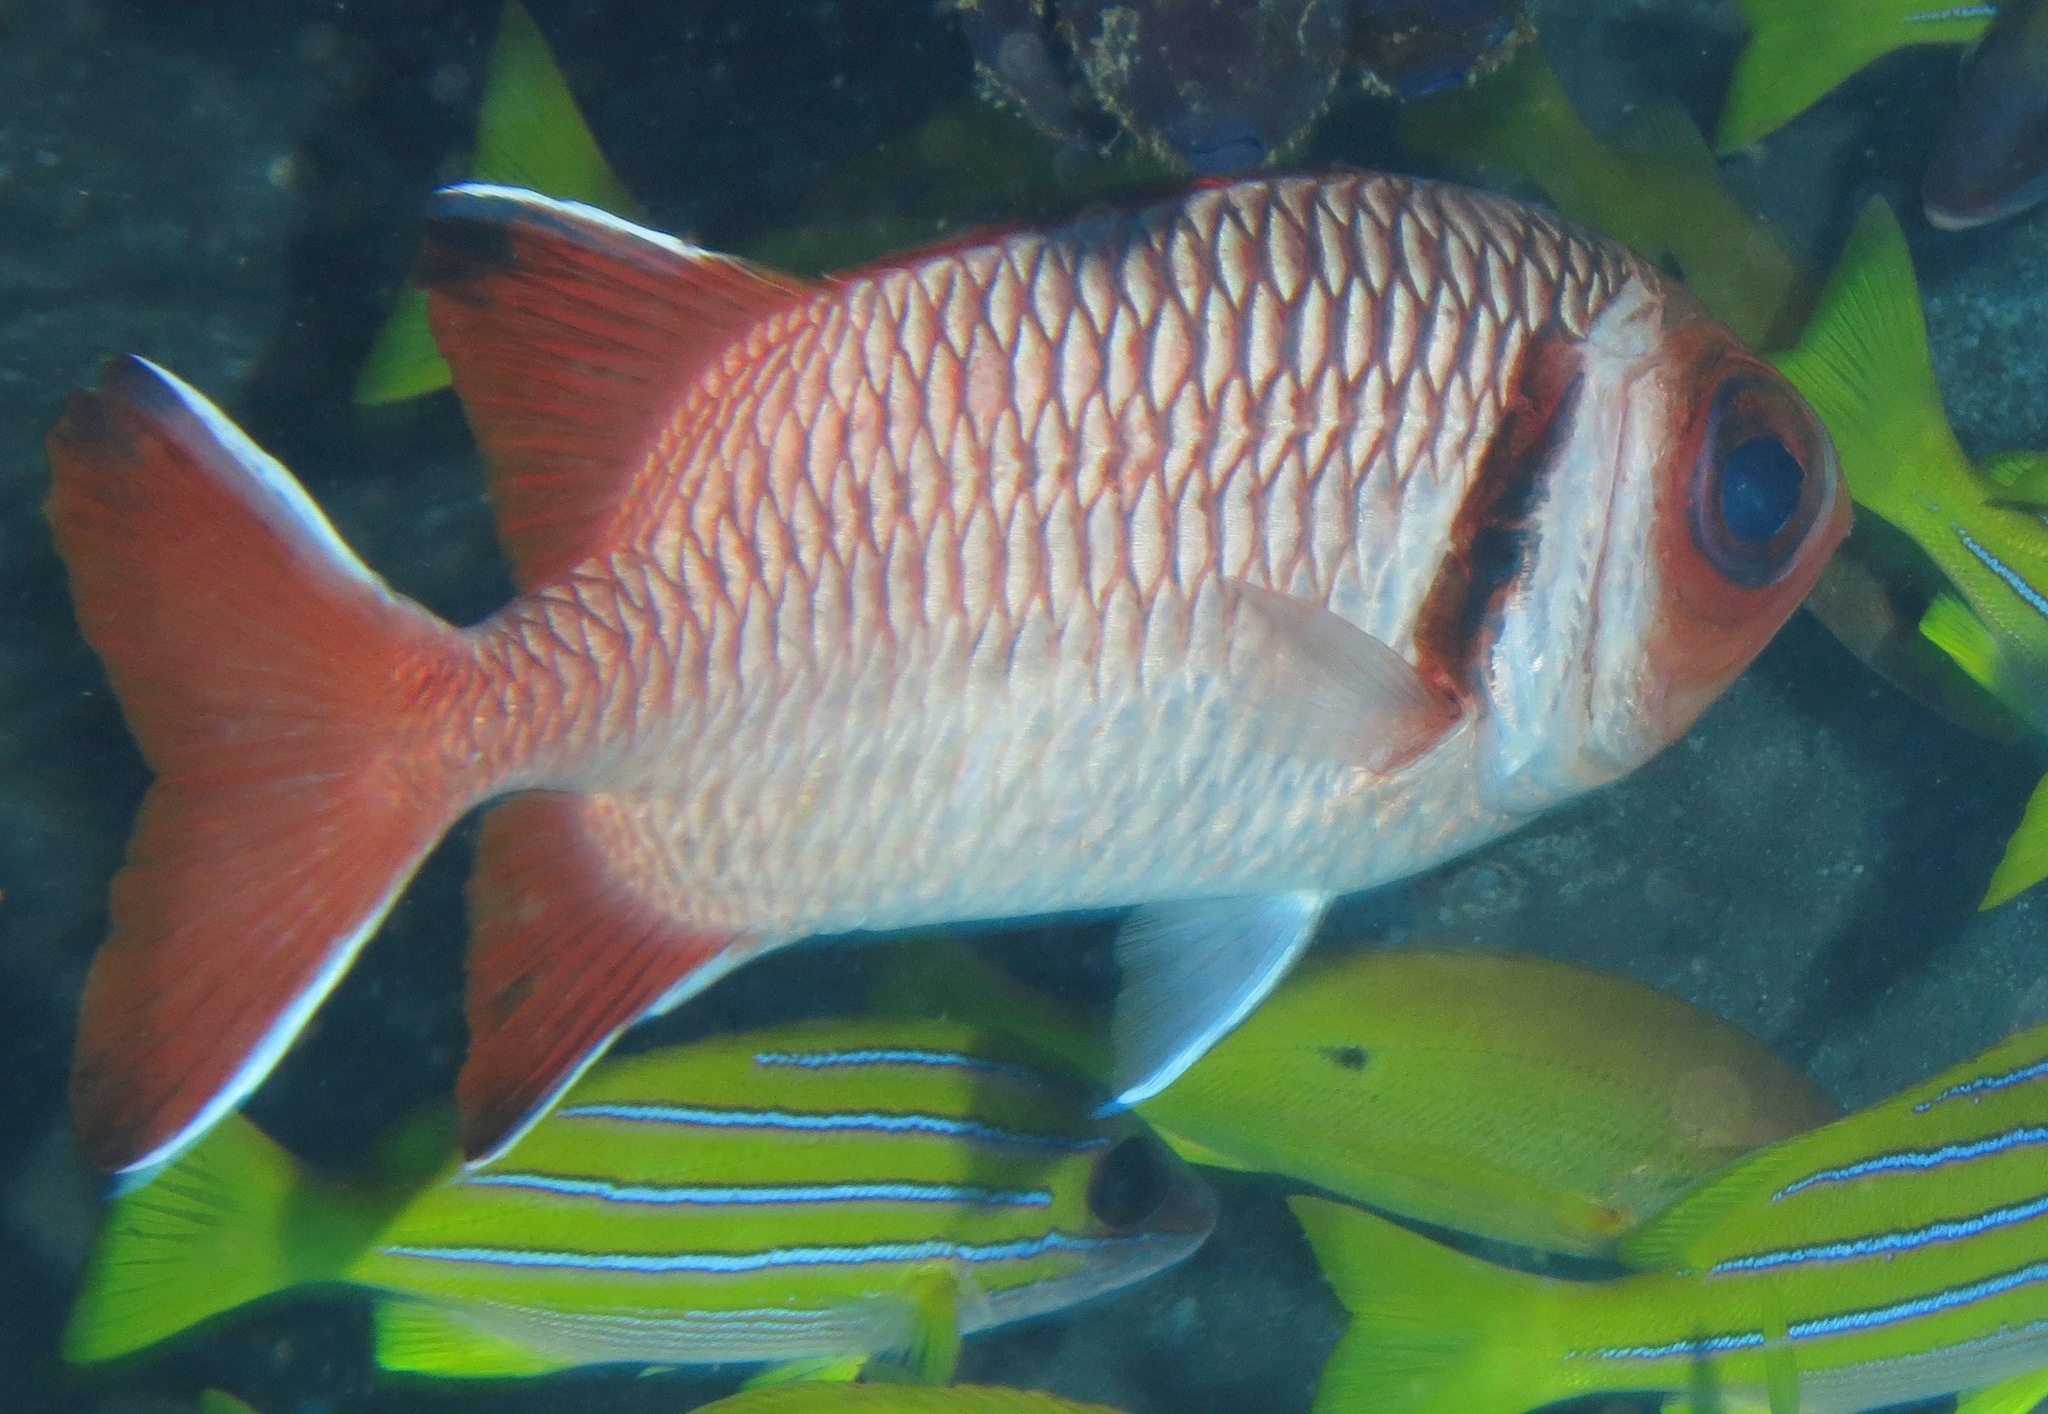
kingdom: Animalia
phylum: Chordata
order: Beryciformes
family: Holocentridae
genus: Myripristis
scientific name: Myripristis botche
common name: Blacktip soldierfish
